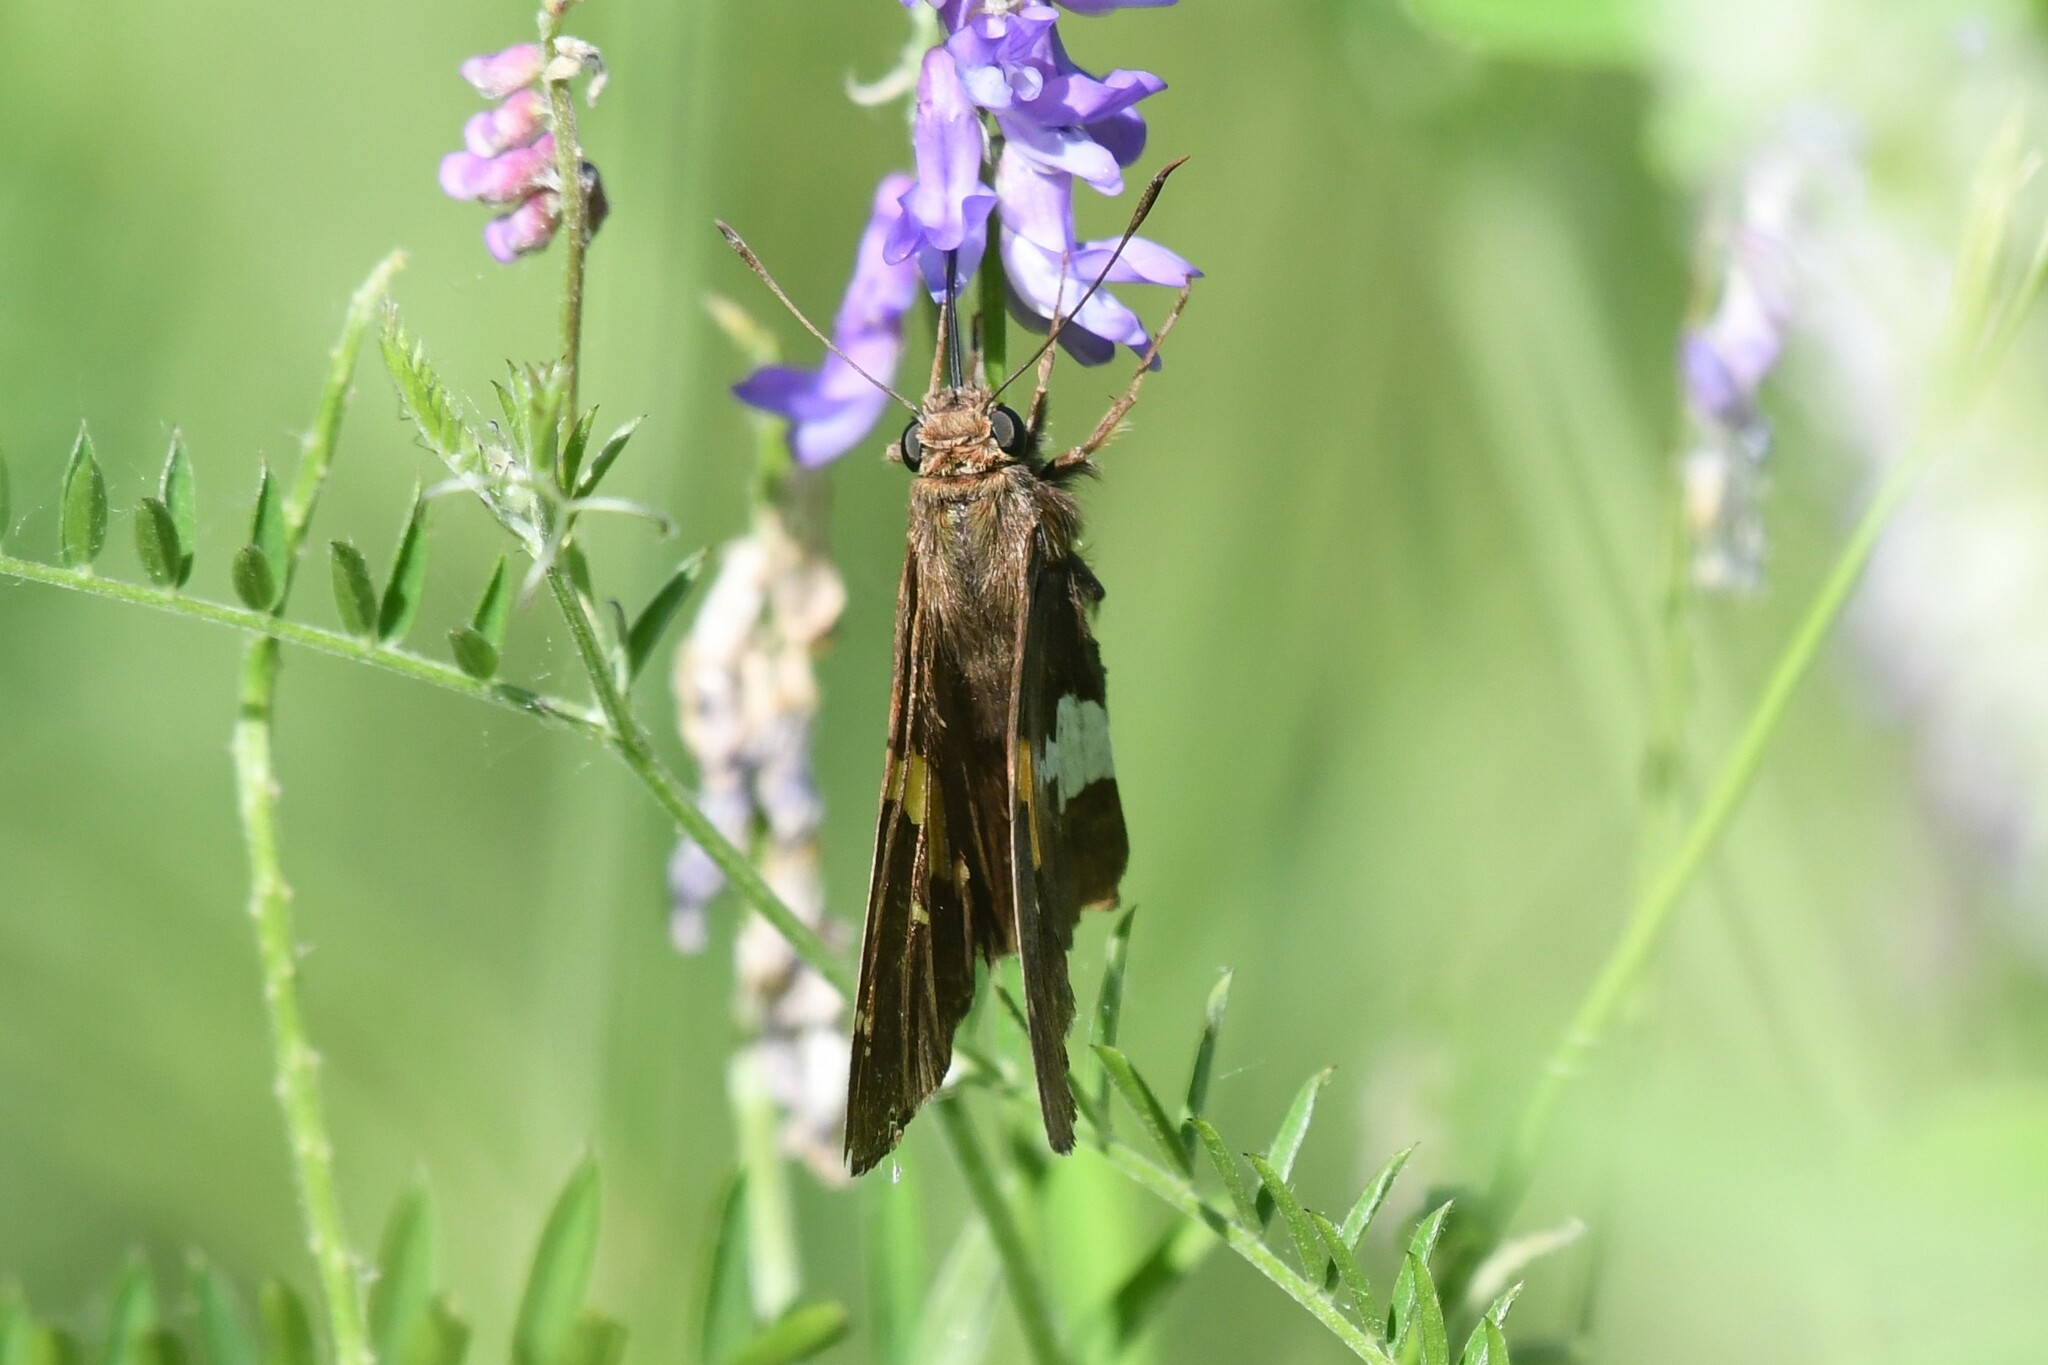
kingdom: Animalia
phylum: Arthropoda
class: Insecta
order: Lepidoptera
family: Hesperiidae
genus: Epargyreus
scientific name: Epargyreus clarus
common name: Silver-spotted skipper
